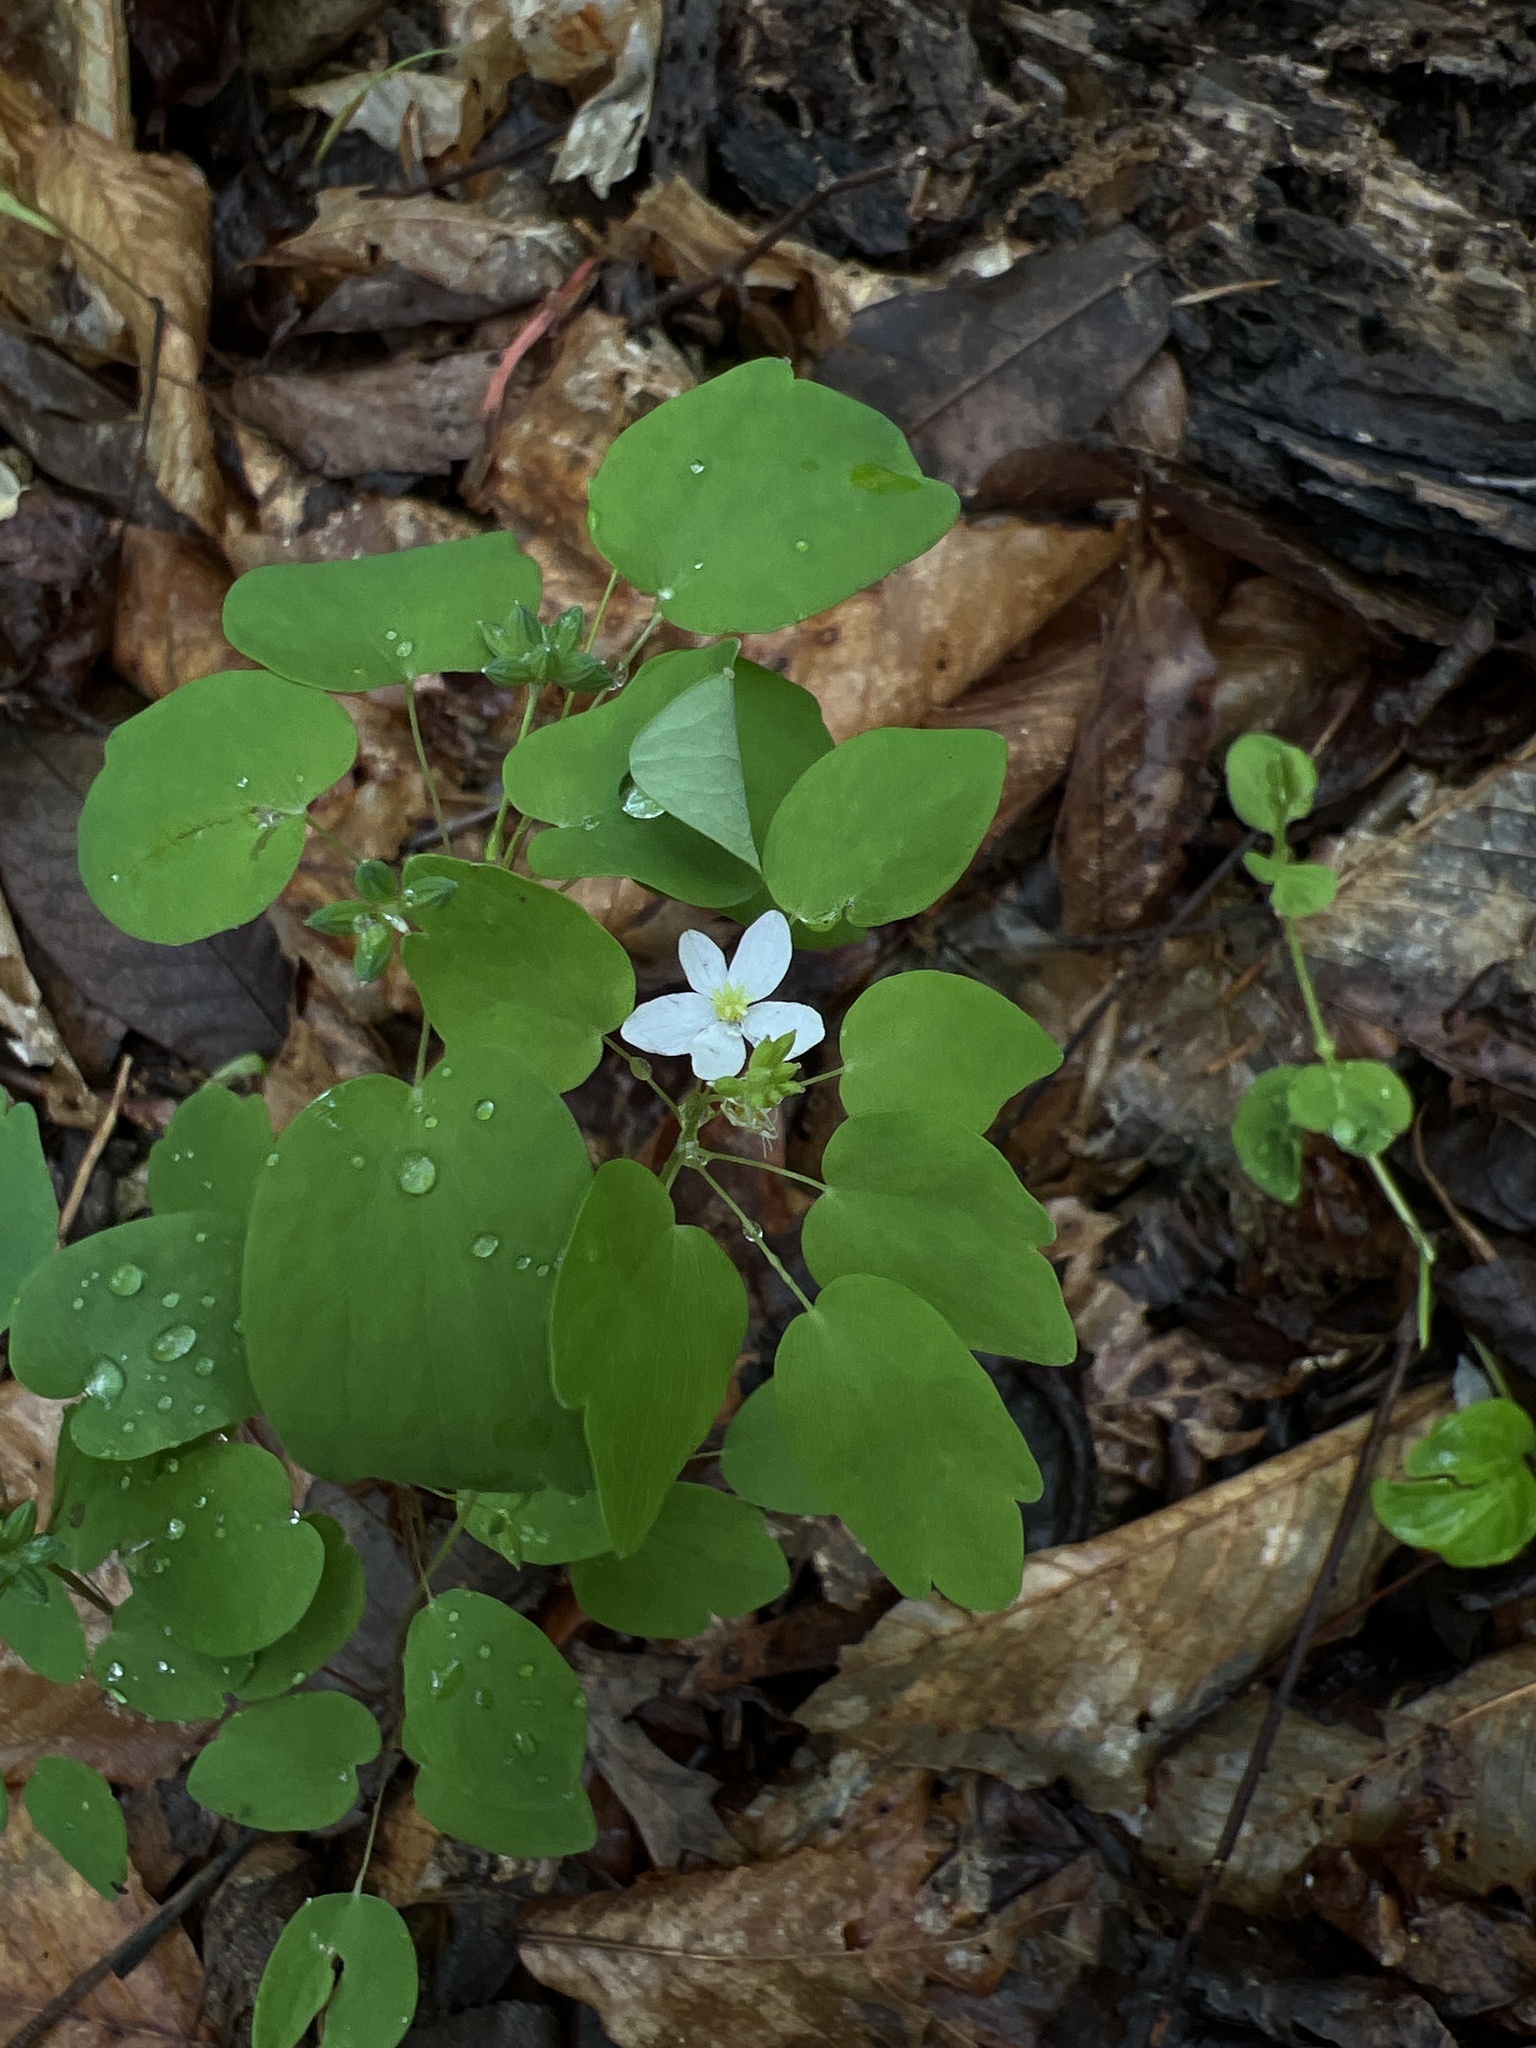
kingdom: Plantae
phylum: Tracheophyta
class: Magnoliopsida
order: Ranunculales
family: Ranunculaceae
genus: Thalictrum
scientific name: Thalictrum thalictroides
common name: Rue-anemone
